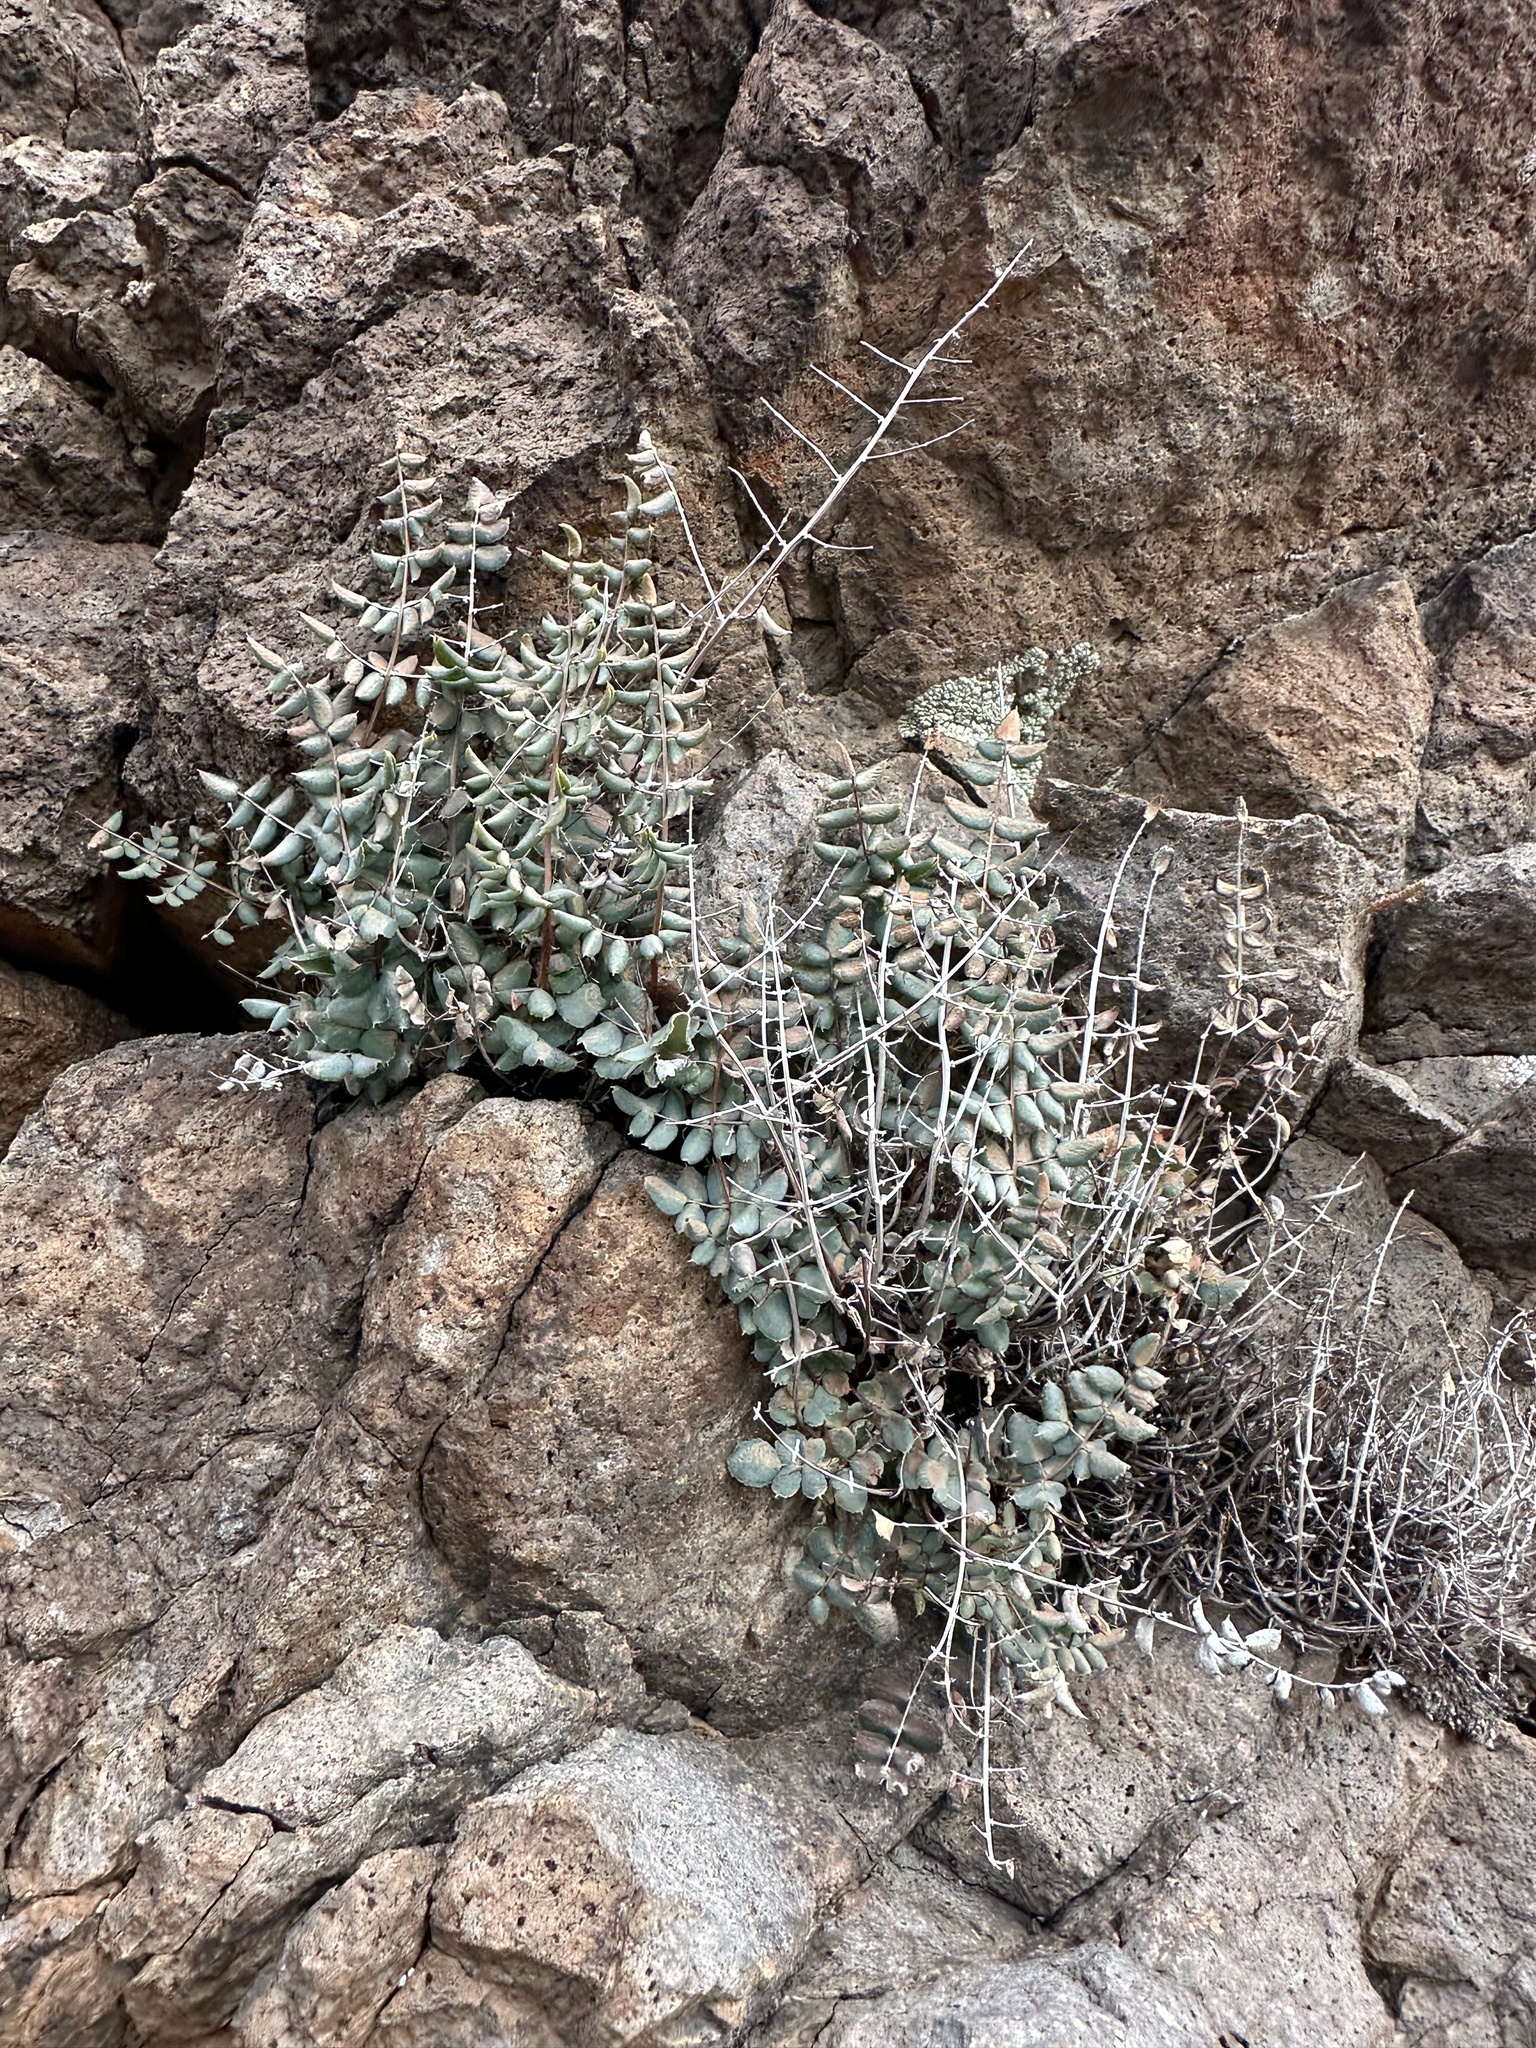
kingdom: Plantae
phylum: Tracheophyta
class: Polypodiopsida
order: Polypodiales
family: Pteridaceae
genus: Pellaea
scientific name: Pellaea truncata
